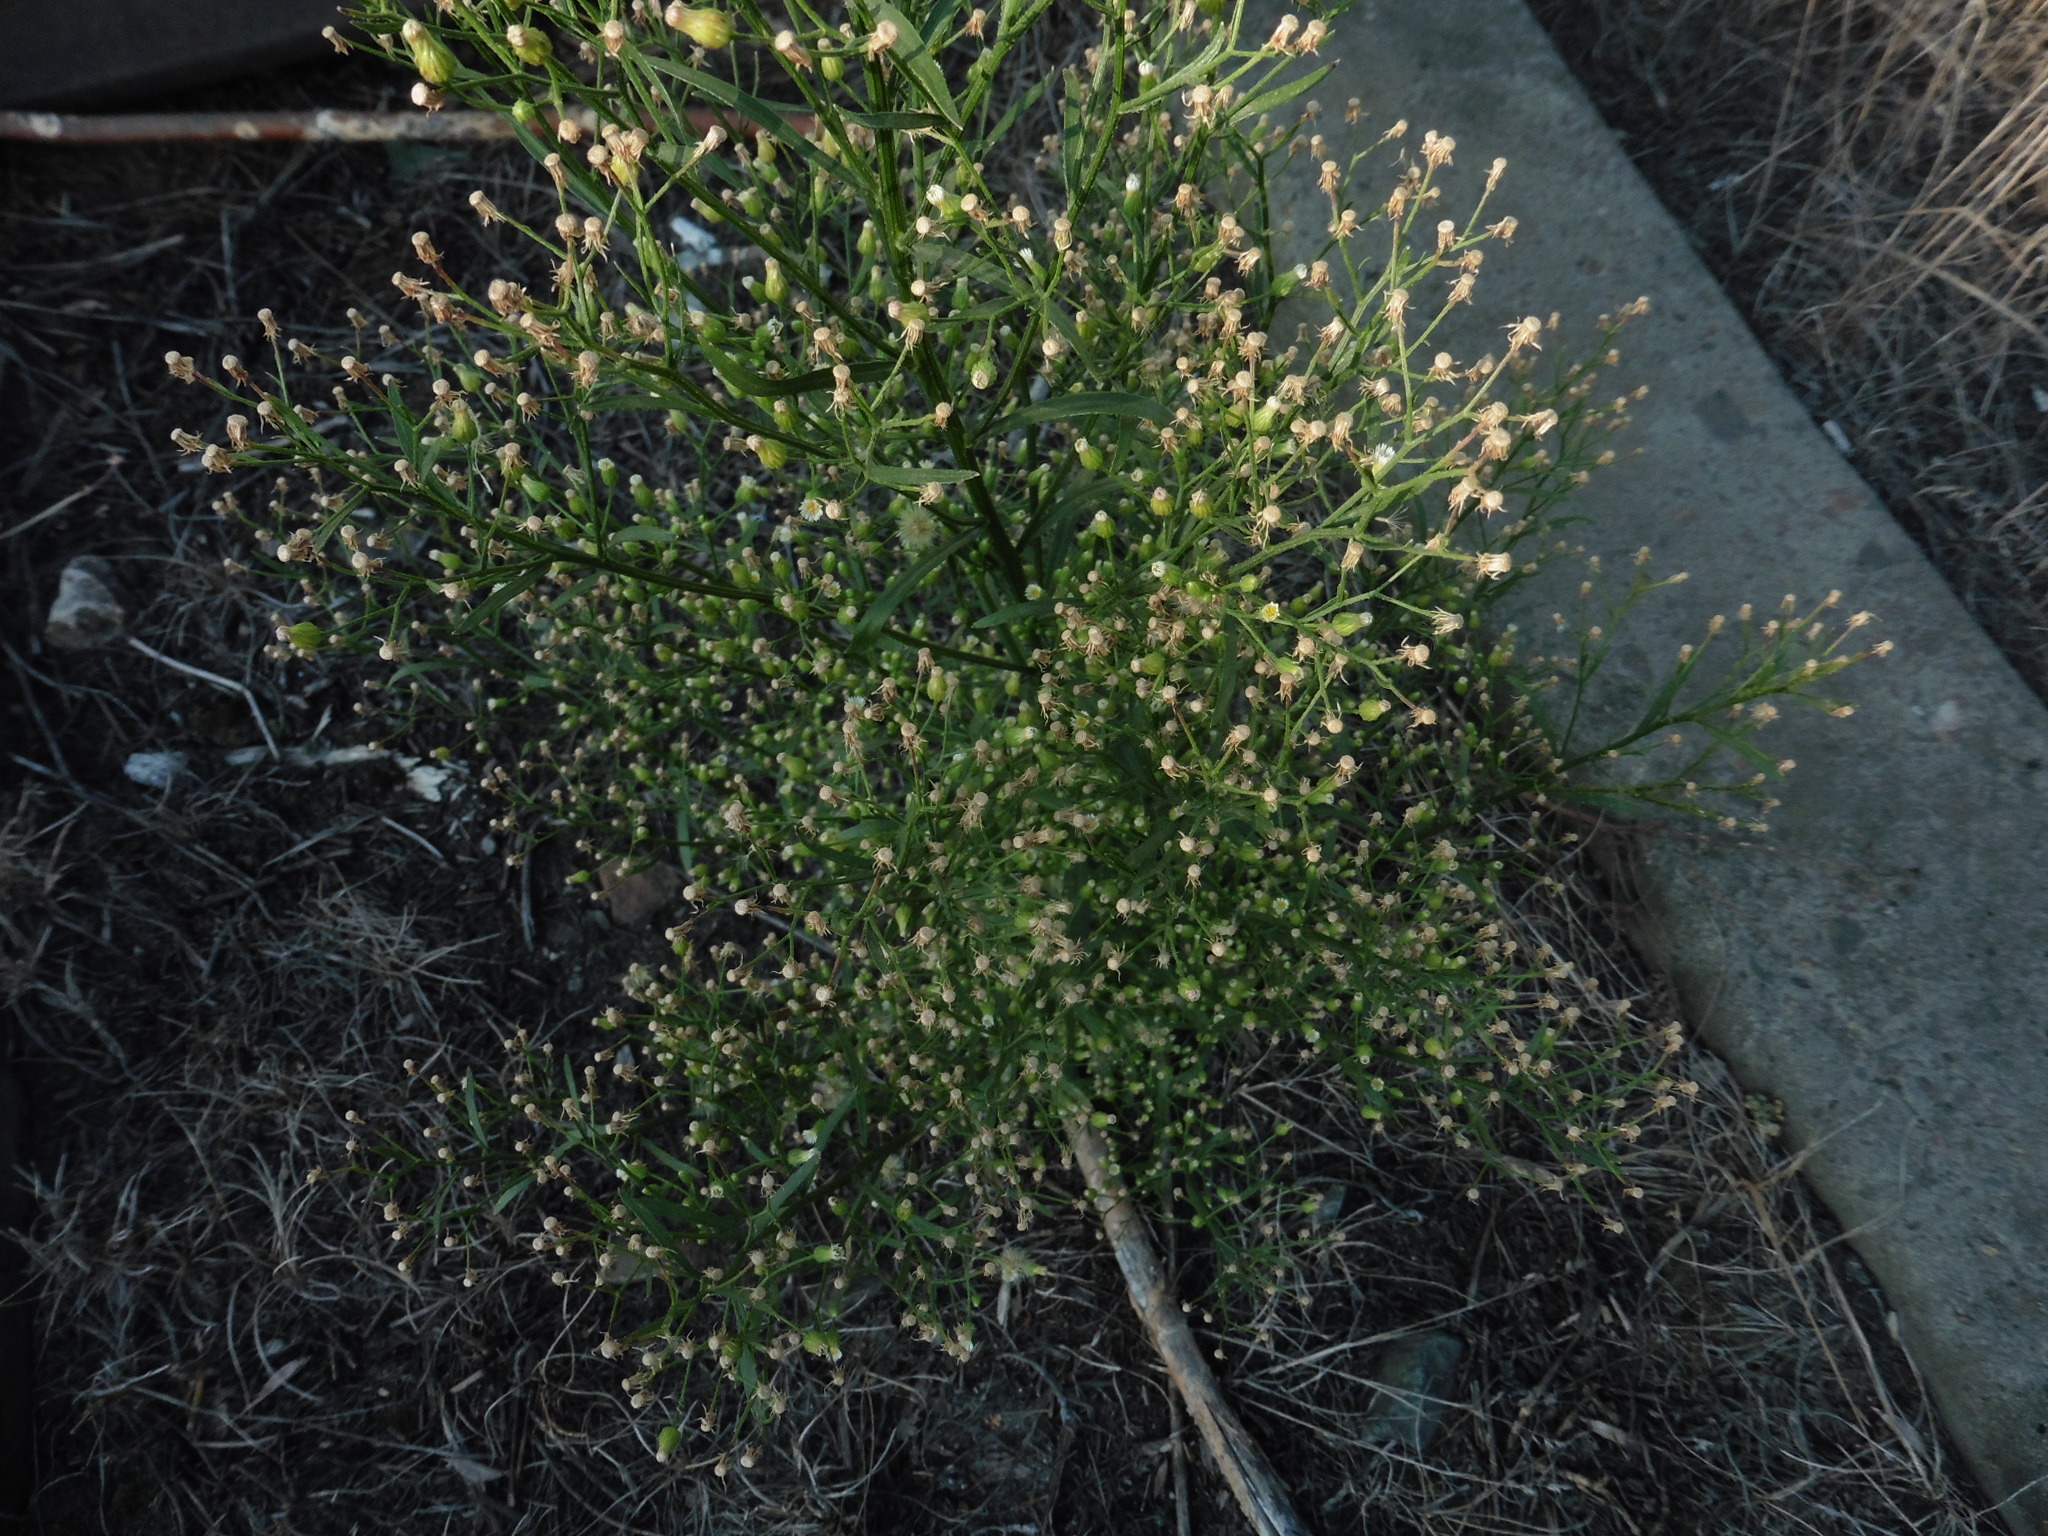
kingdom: Plantae
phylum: Tracheophyta
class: Magnoliopsida
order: Asterales
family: Asteraceae
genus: Erigeron
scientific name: Erigeron canadensis
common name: Canadian fleabane
